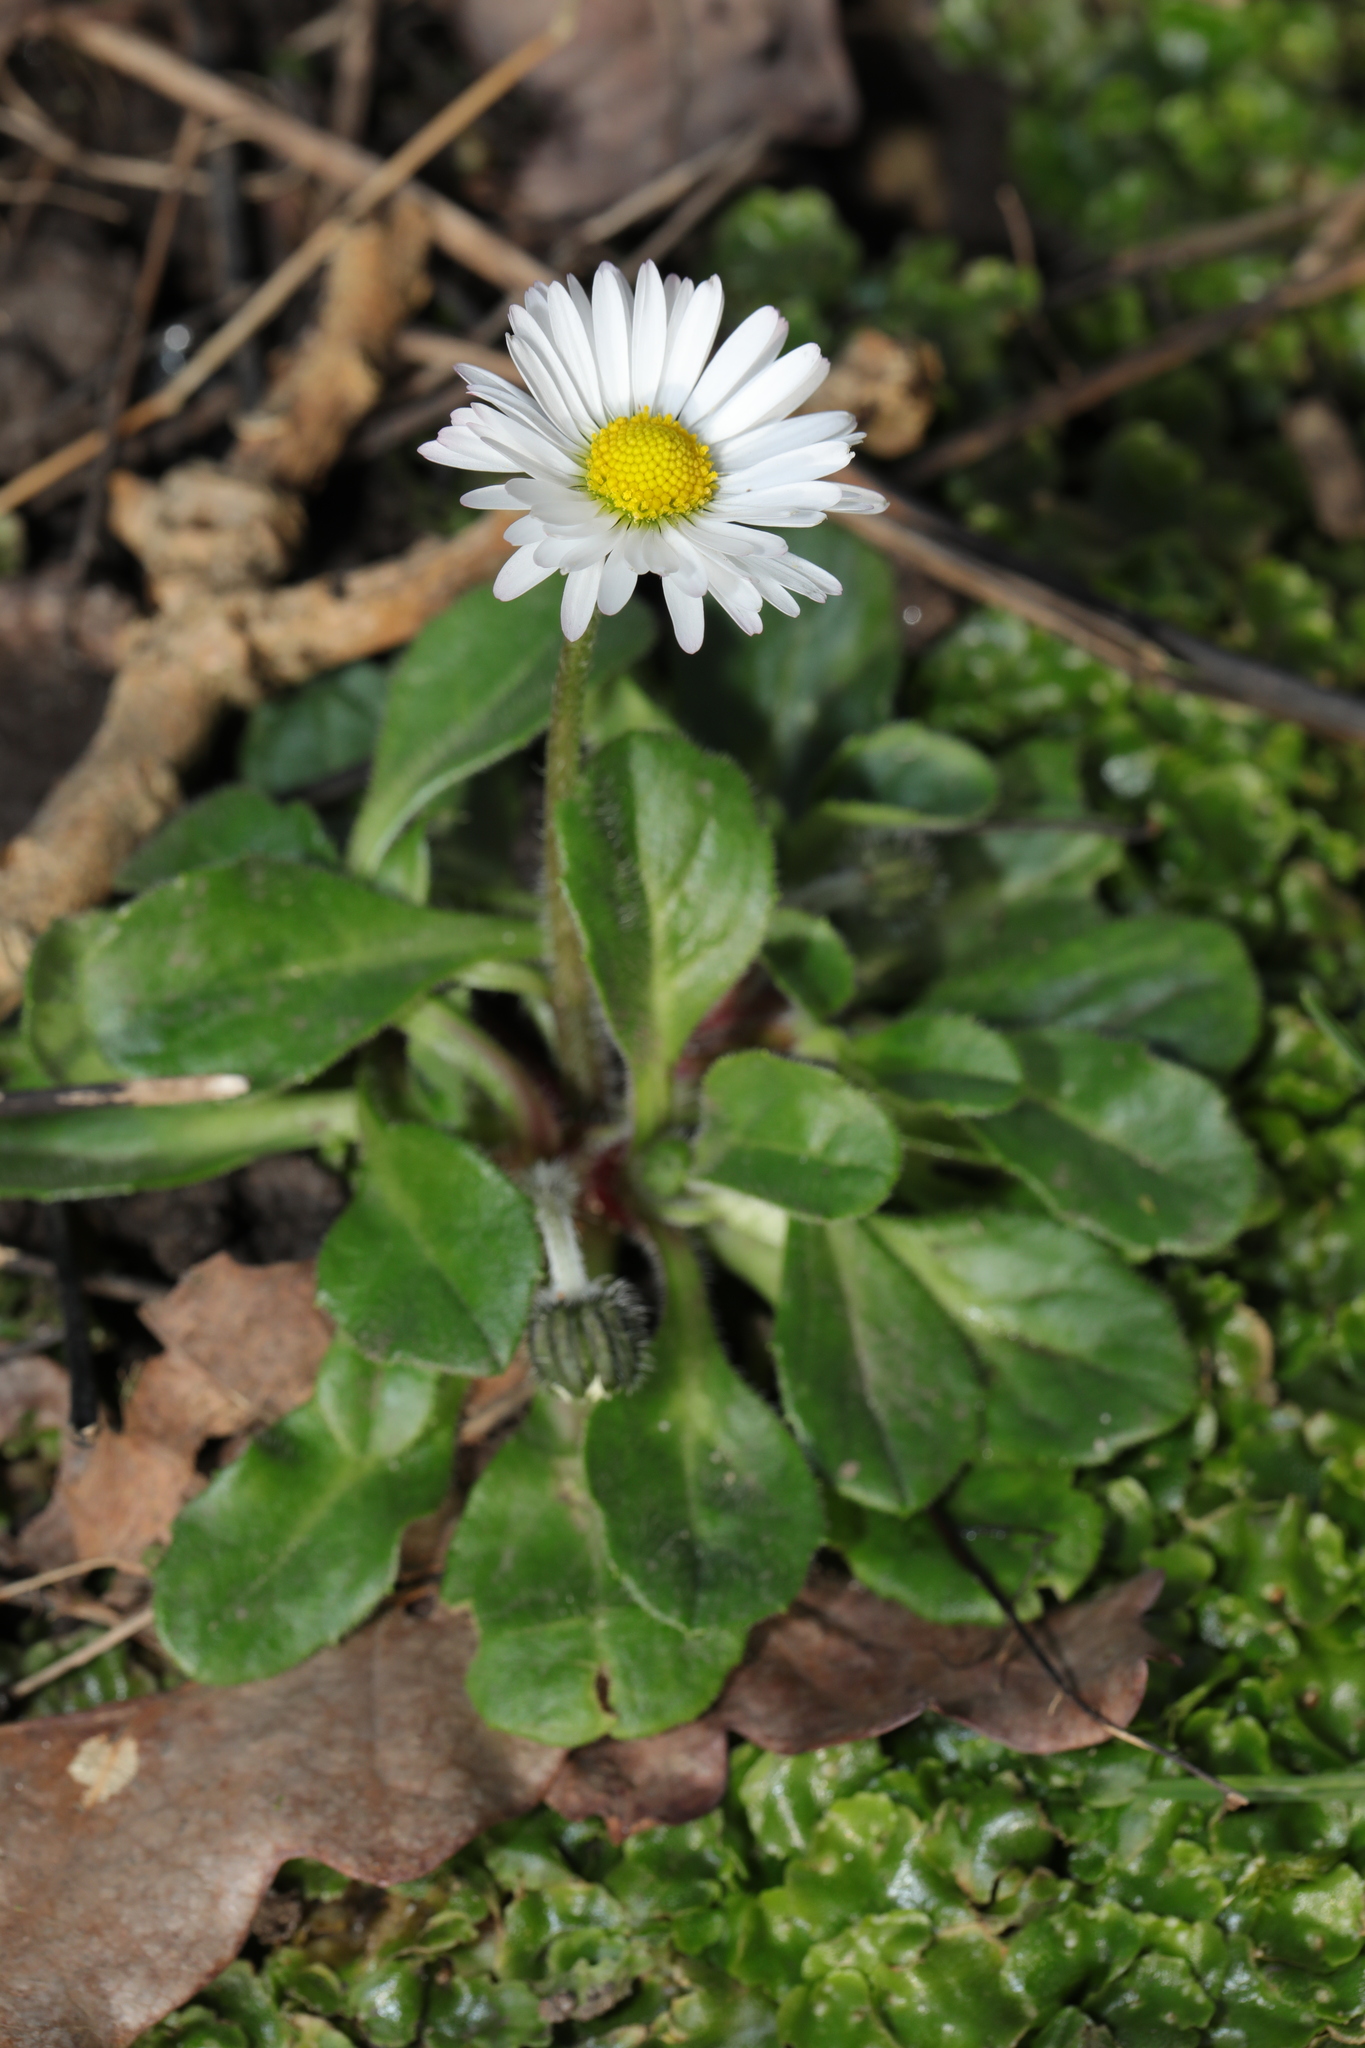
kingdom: Plantae
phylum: Tracheophyta
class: Magnoliopsida
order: Asterales
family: Asteraceae
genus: Bellis
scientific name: Bellis perennis
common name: Lawndaisy
